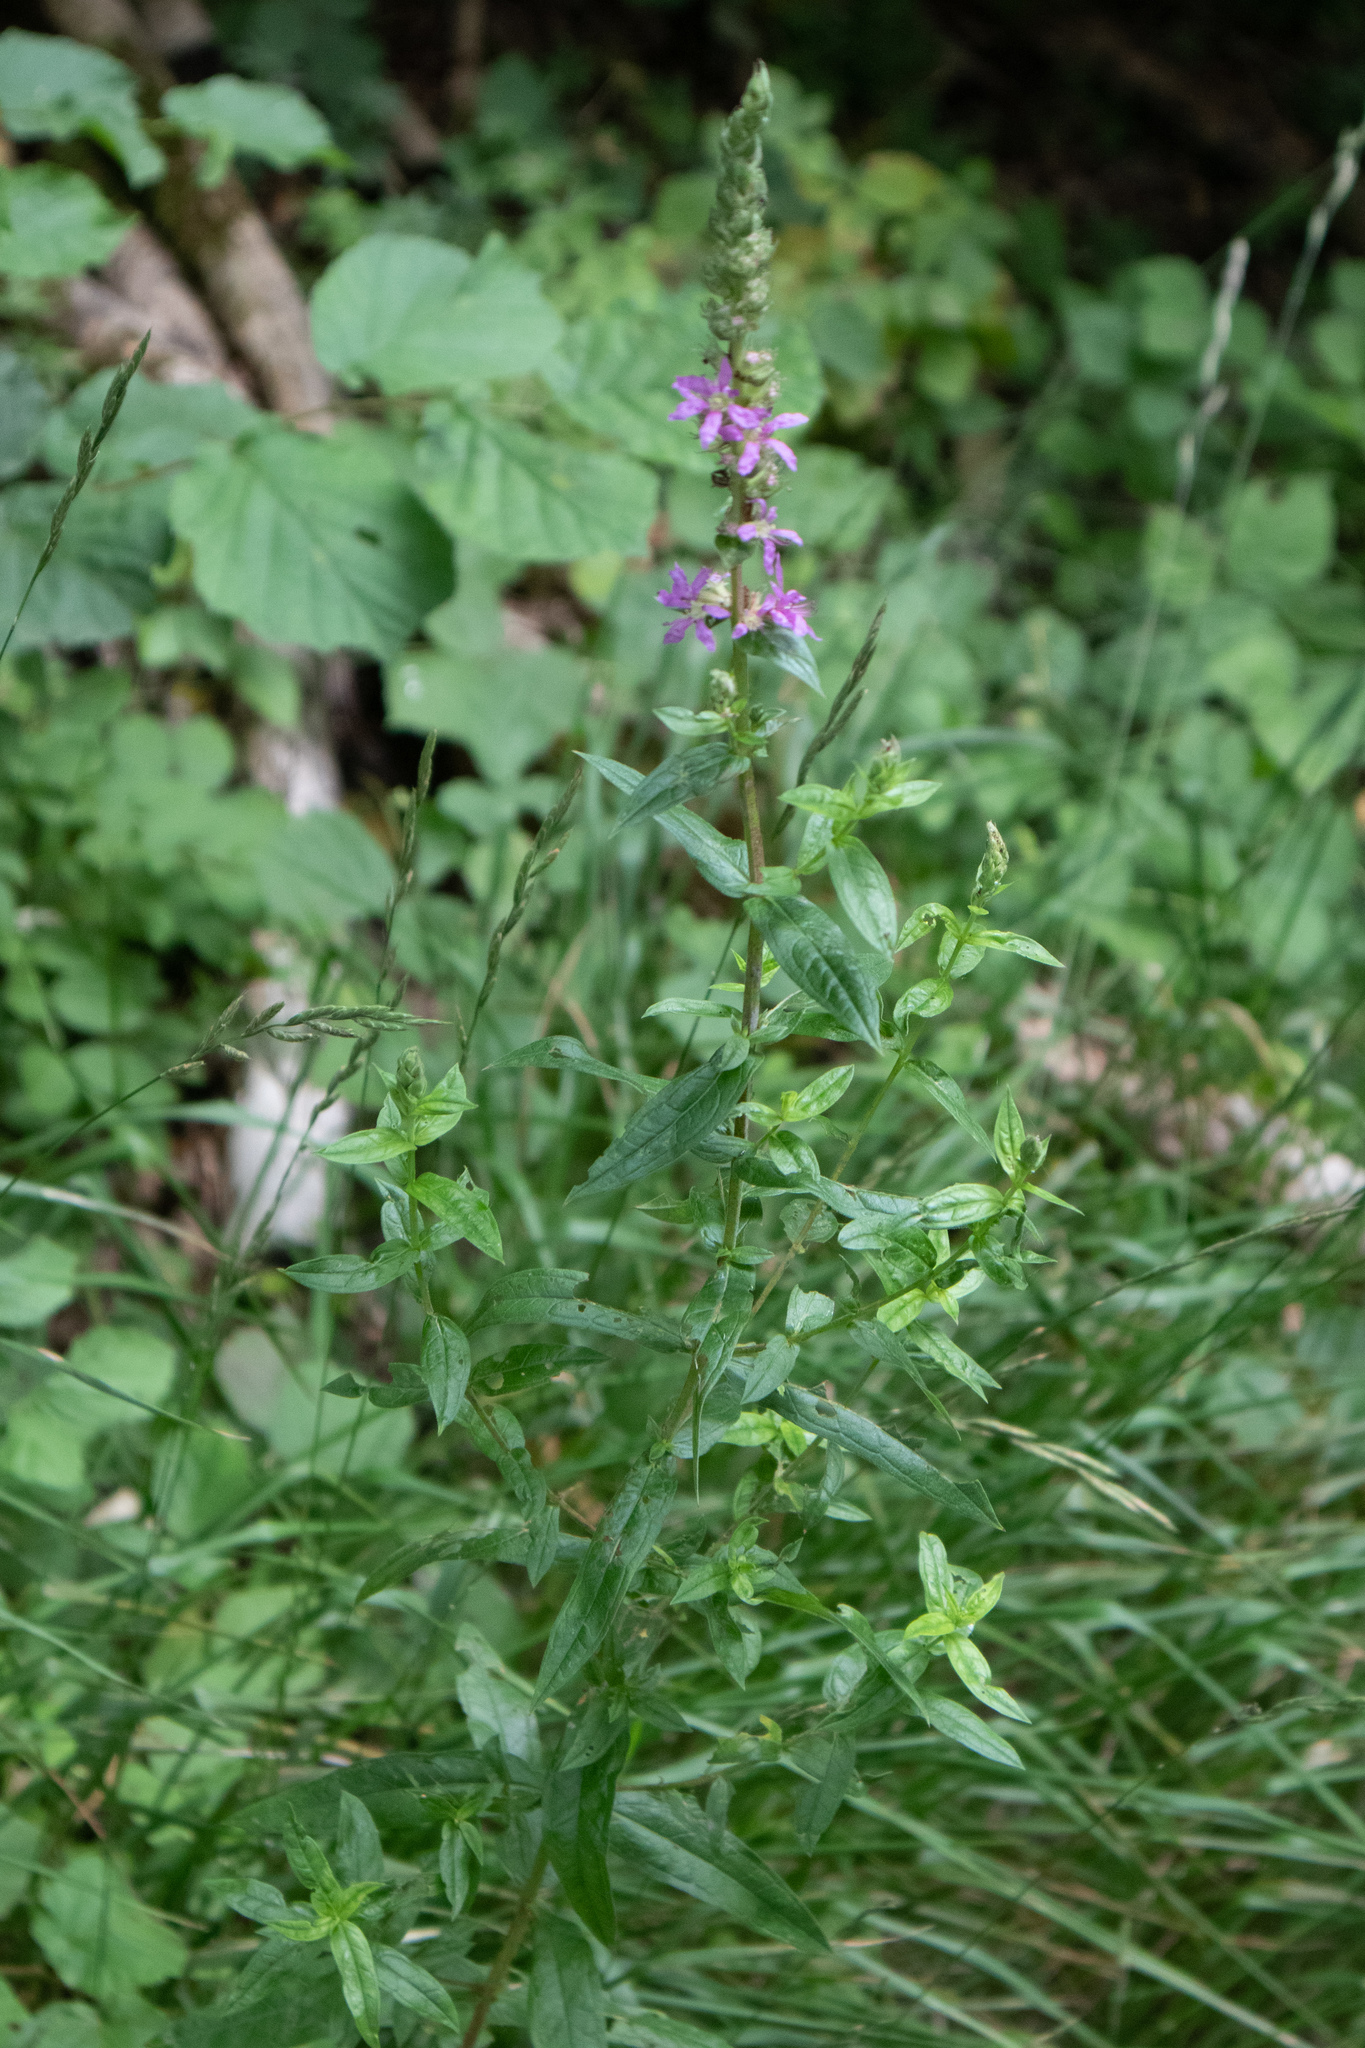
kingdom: Plantae
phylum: Tracheophyta
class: Magnoliopsida
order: Myrtales
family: Lythraceae
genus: Lythrum
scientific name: Lythrum salicaria
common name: Purple loosestrife
